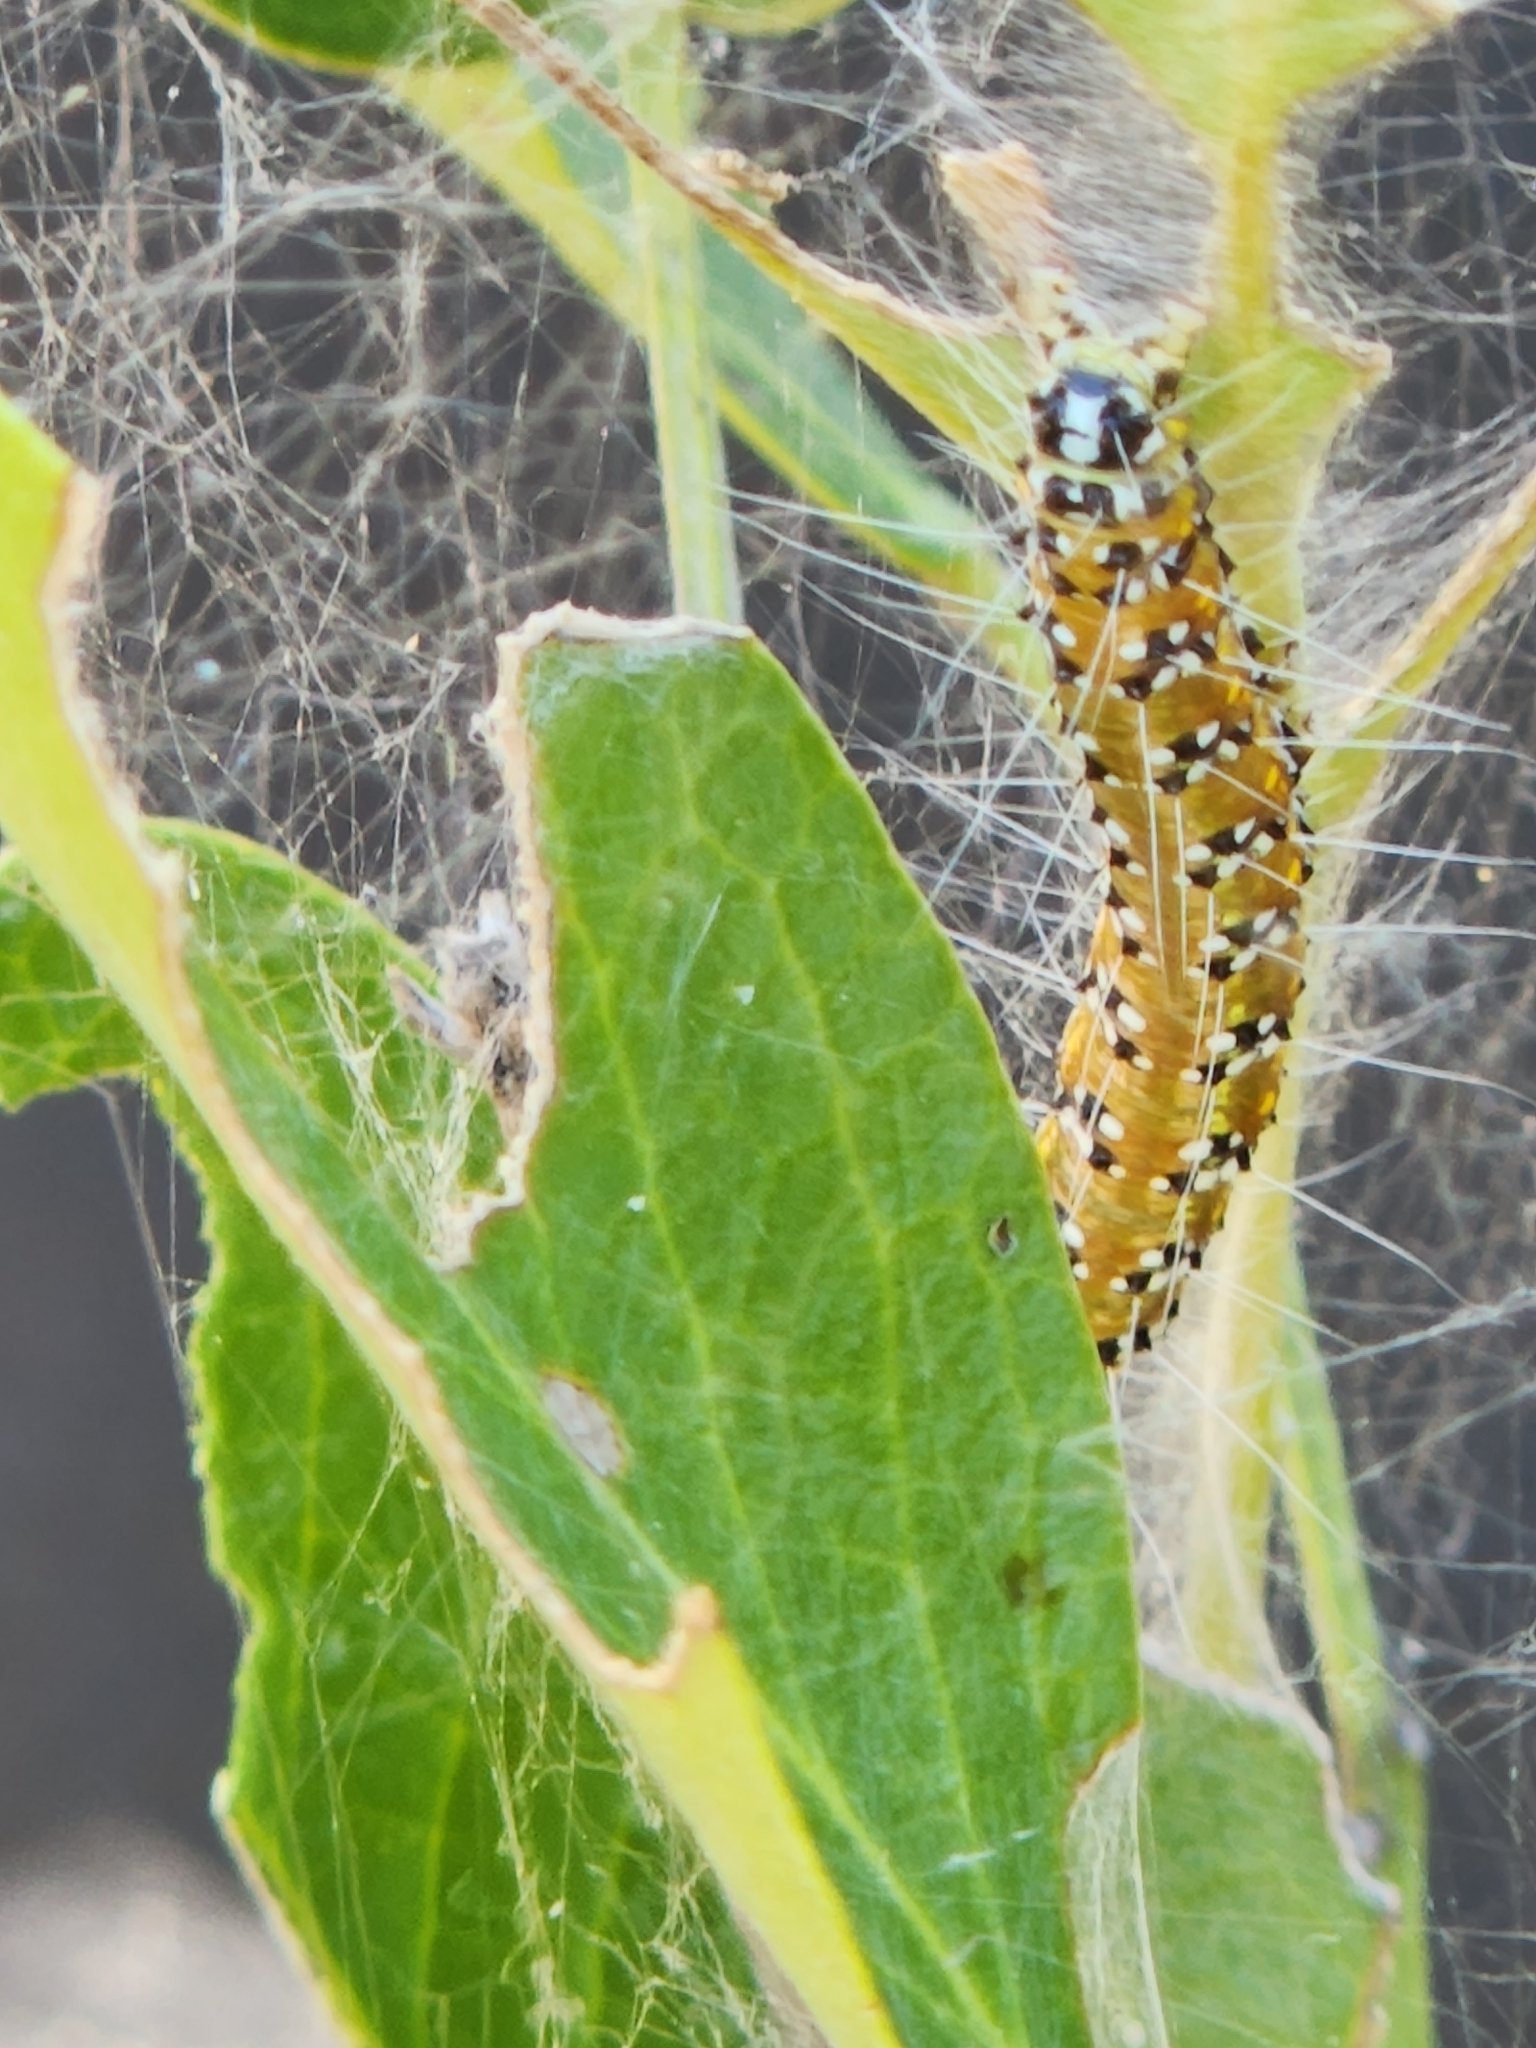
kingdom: Animalia
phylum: Arthropoda
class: Insecta
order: Lepidoptera
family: Crambidae
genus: Uresiphita
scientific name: Uresiphita reversalis
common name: Genista broom moth
